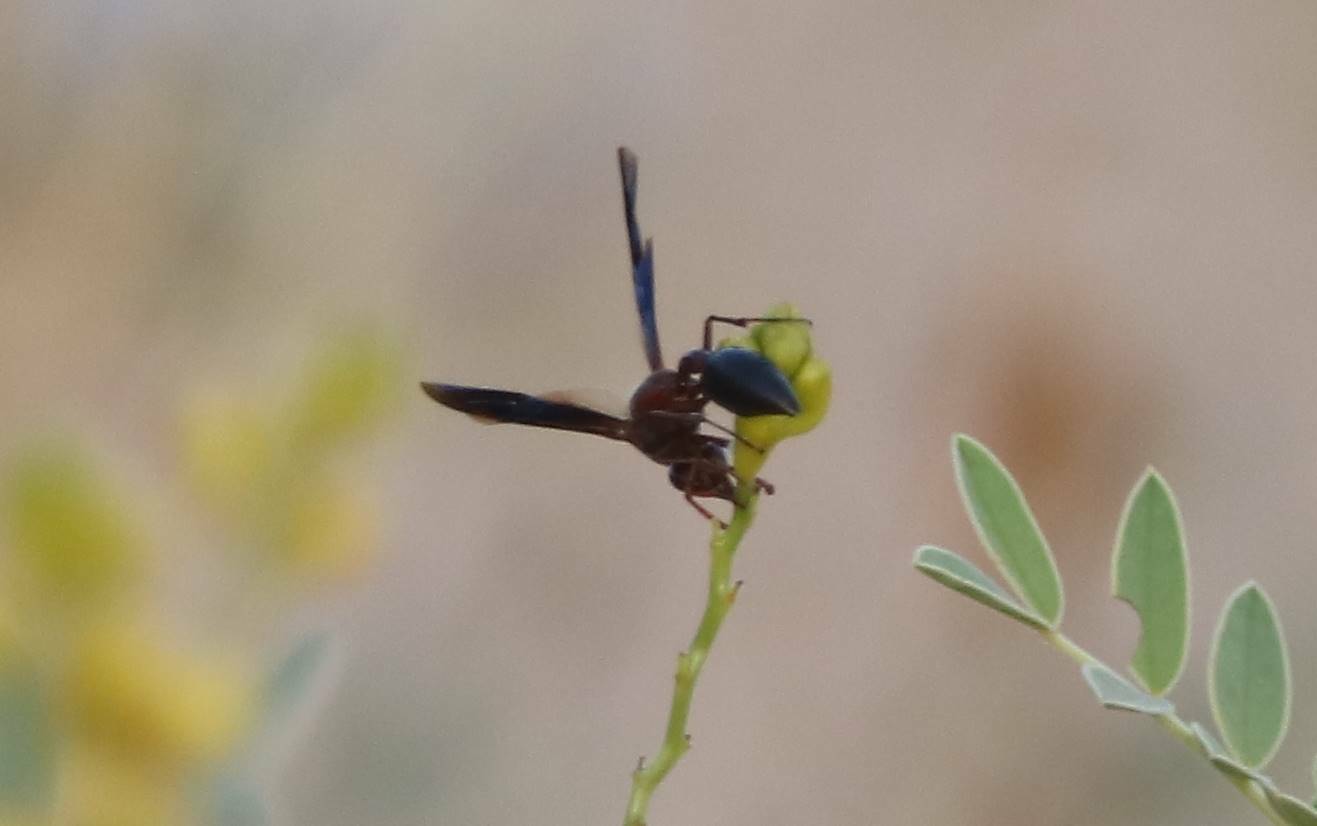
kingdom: Animalia
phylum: Arthropoda
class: Insecta
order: Hymenoptera
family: Eumenidae
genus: Delta
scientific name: Delta emarginatum
